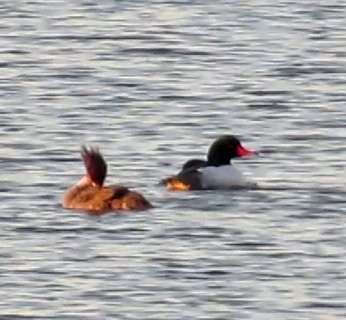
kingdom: Animalia
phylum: Chordata
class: Aves
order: Anseriformes
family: Anatidae
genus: Mergus
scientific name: Mergus merganser
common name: Common merganser
